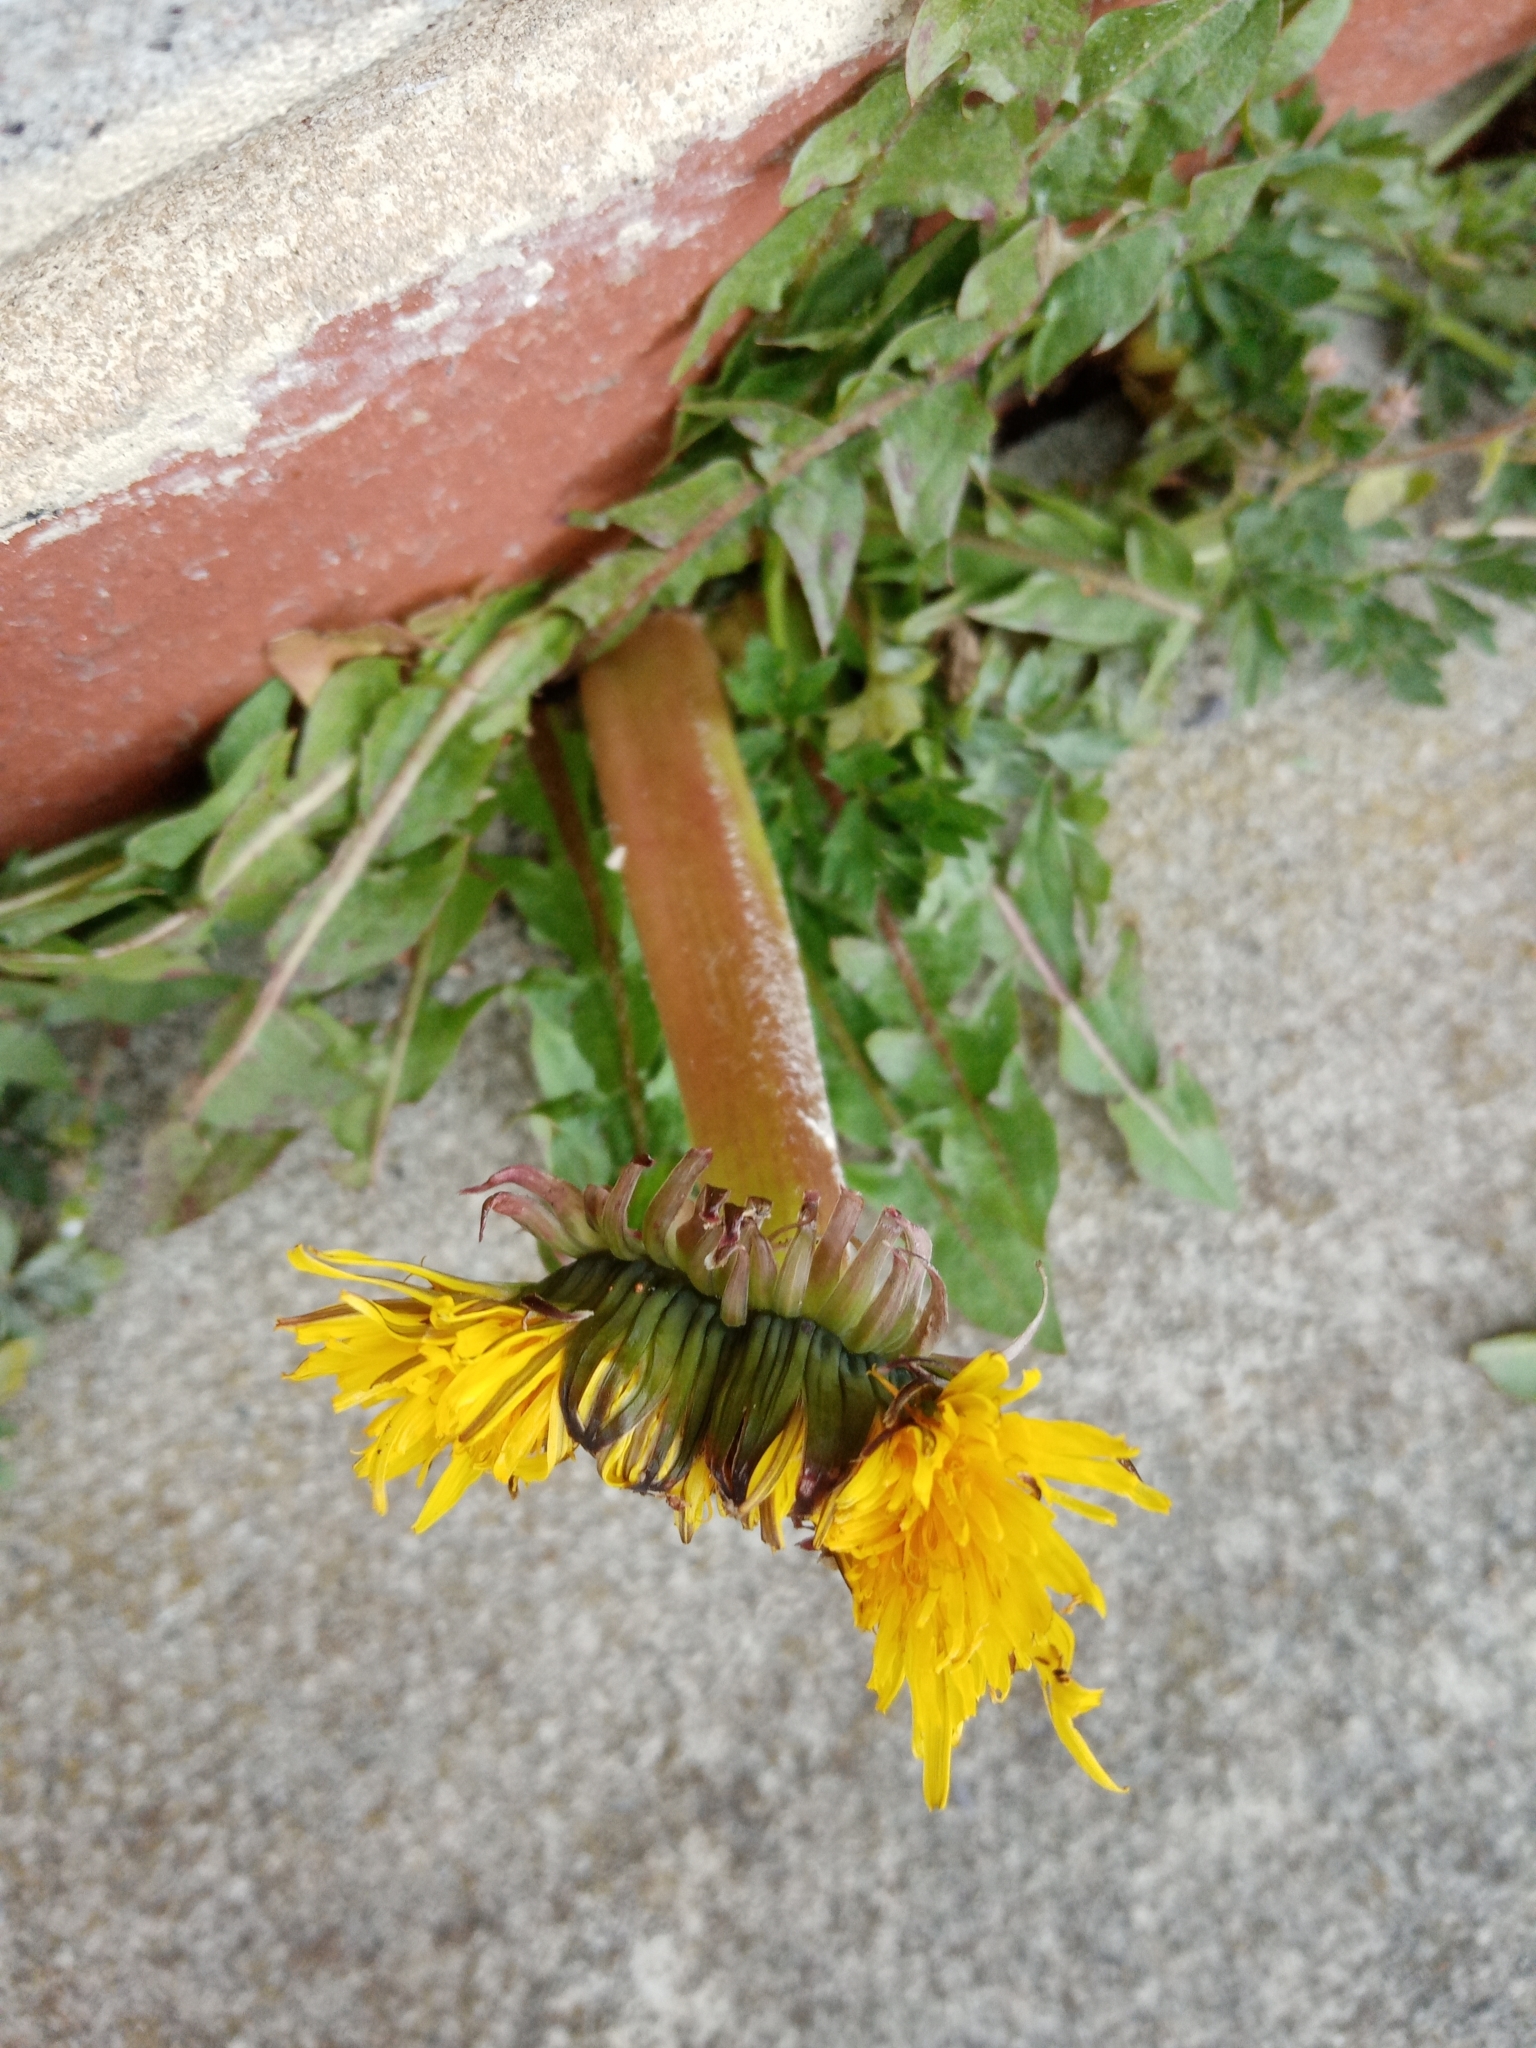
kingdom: Plantae
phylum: Tracheophyta
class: Magnoliopsida
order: Asterales
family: Asteraceae
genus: Taraxacum
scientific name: Taraxacum officinale
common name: Common dandelion
